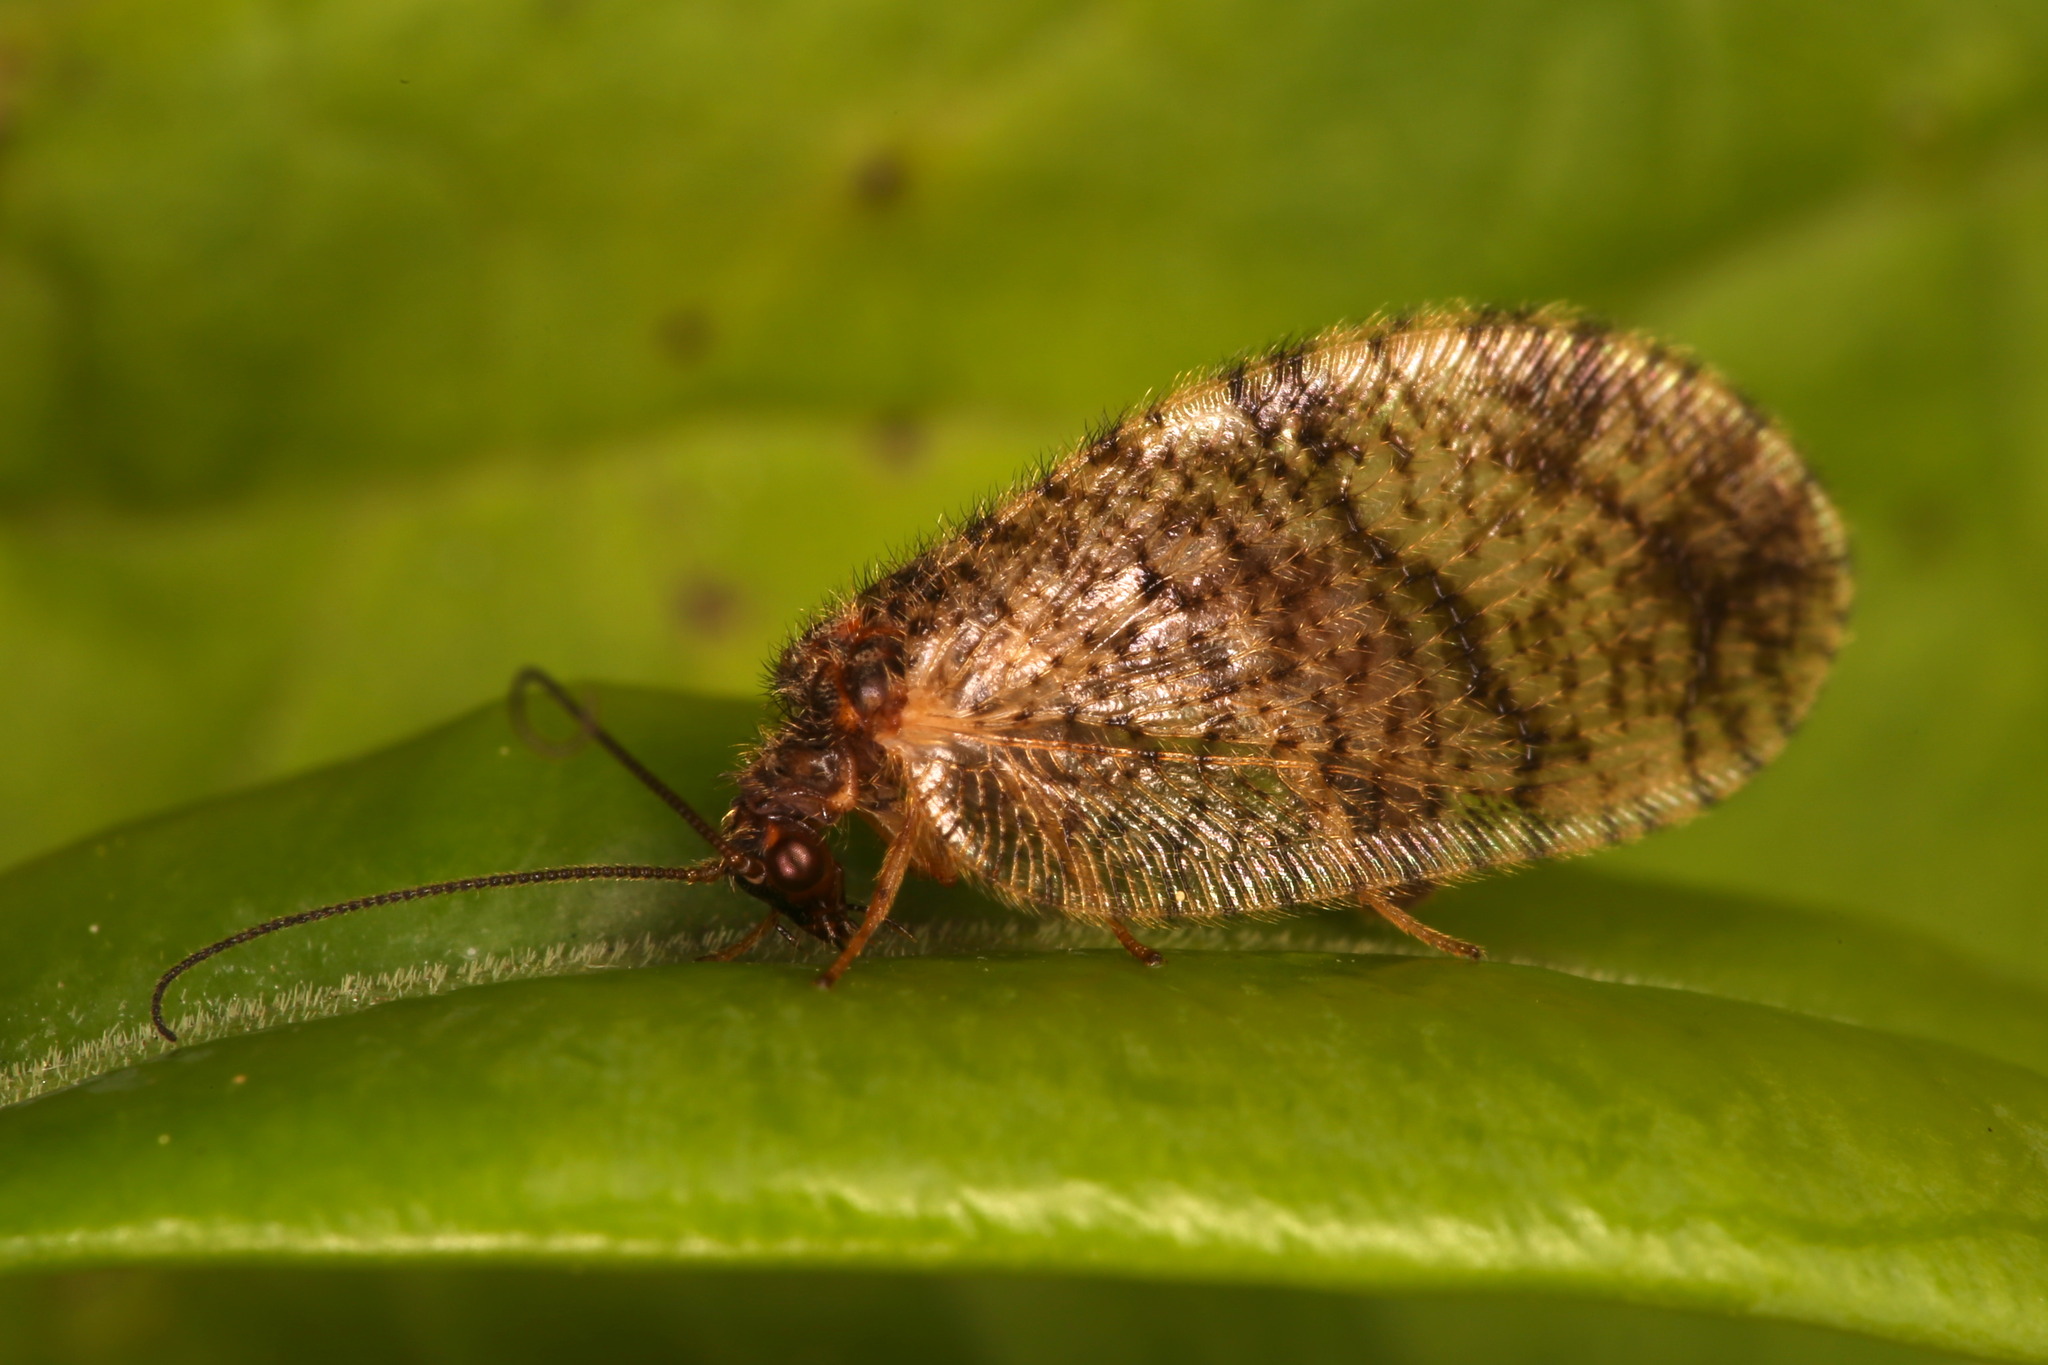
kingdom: Animalia
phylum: Arthropoda
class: Insecta
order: Neuroptera
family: Hemerobiidae
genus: Megalomus
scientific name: Megalomus tortricoides
